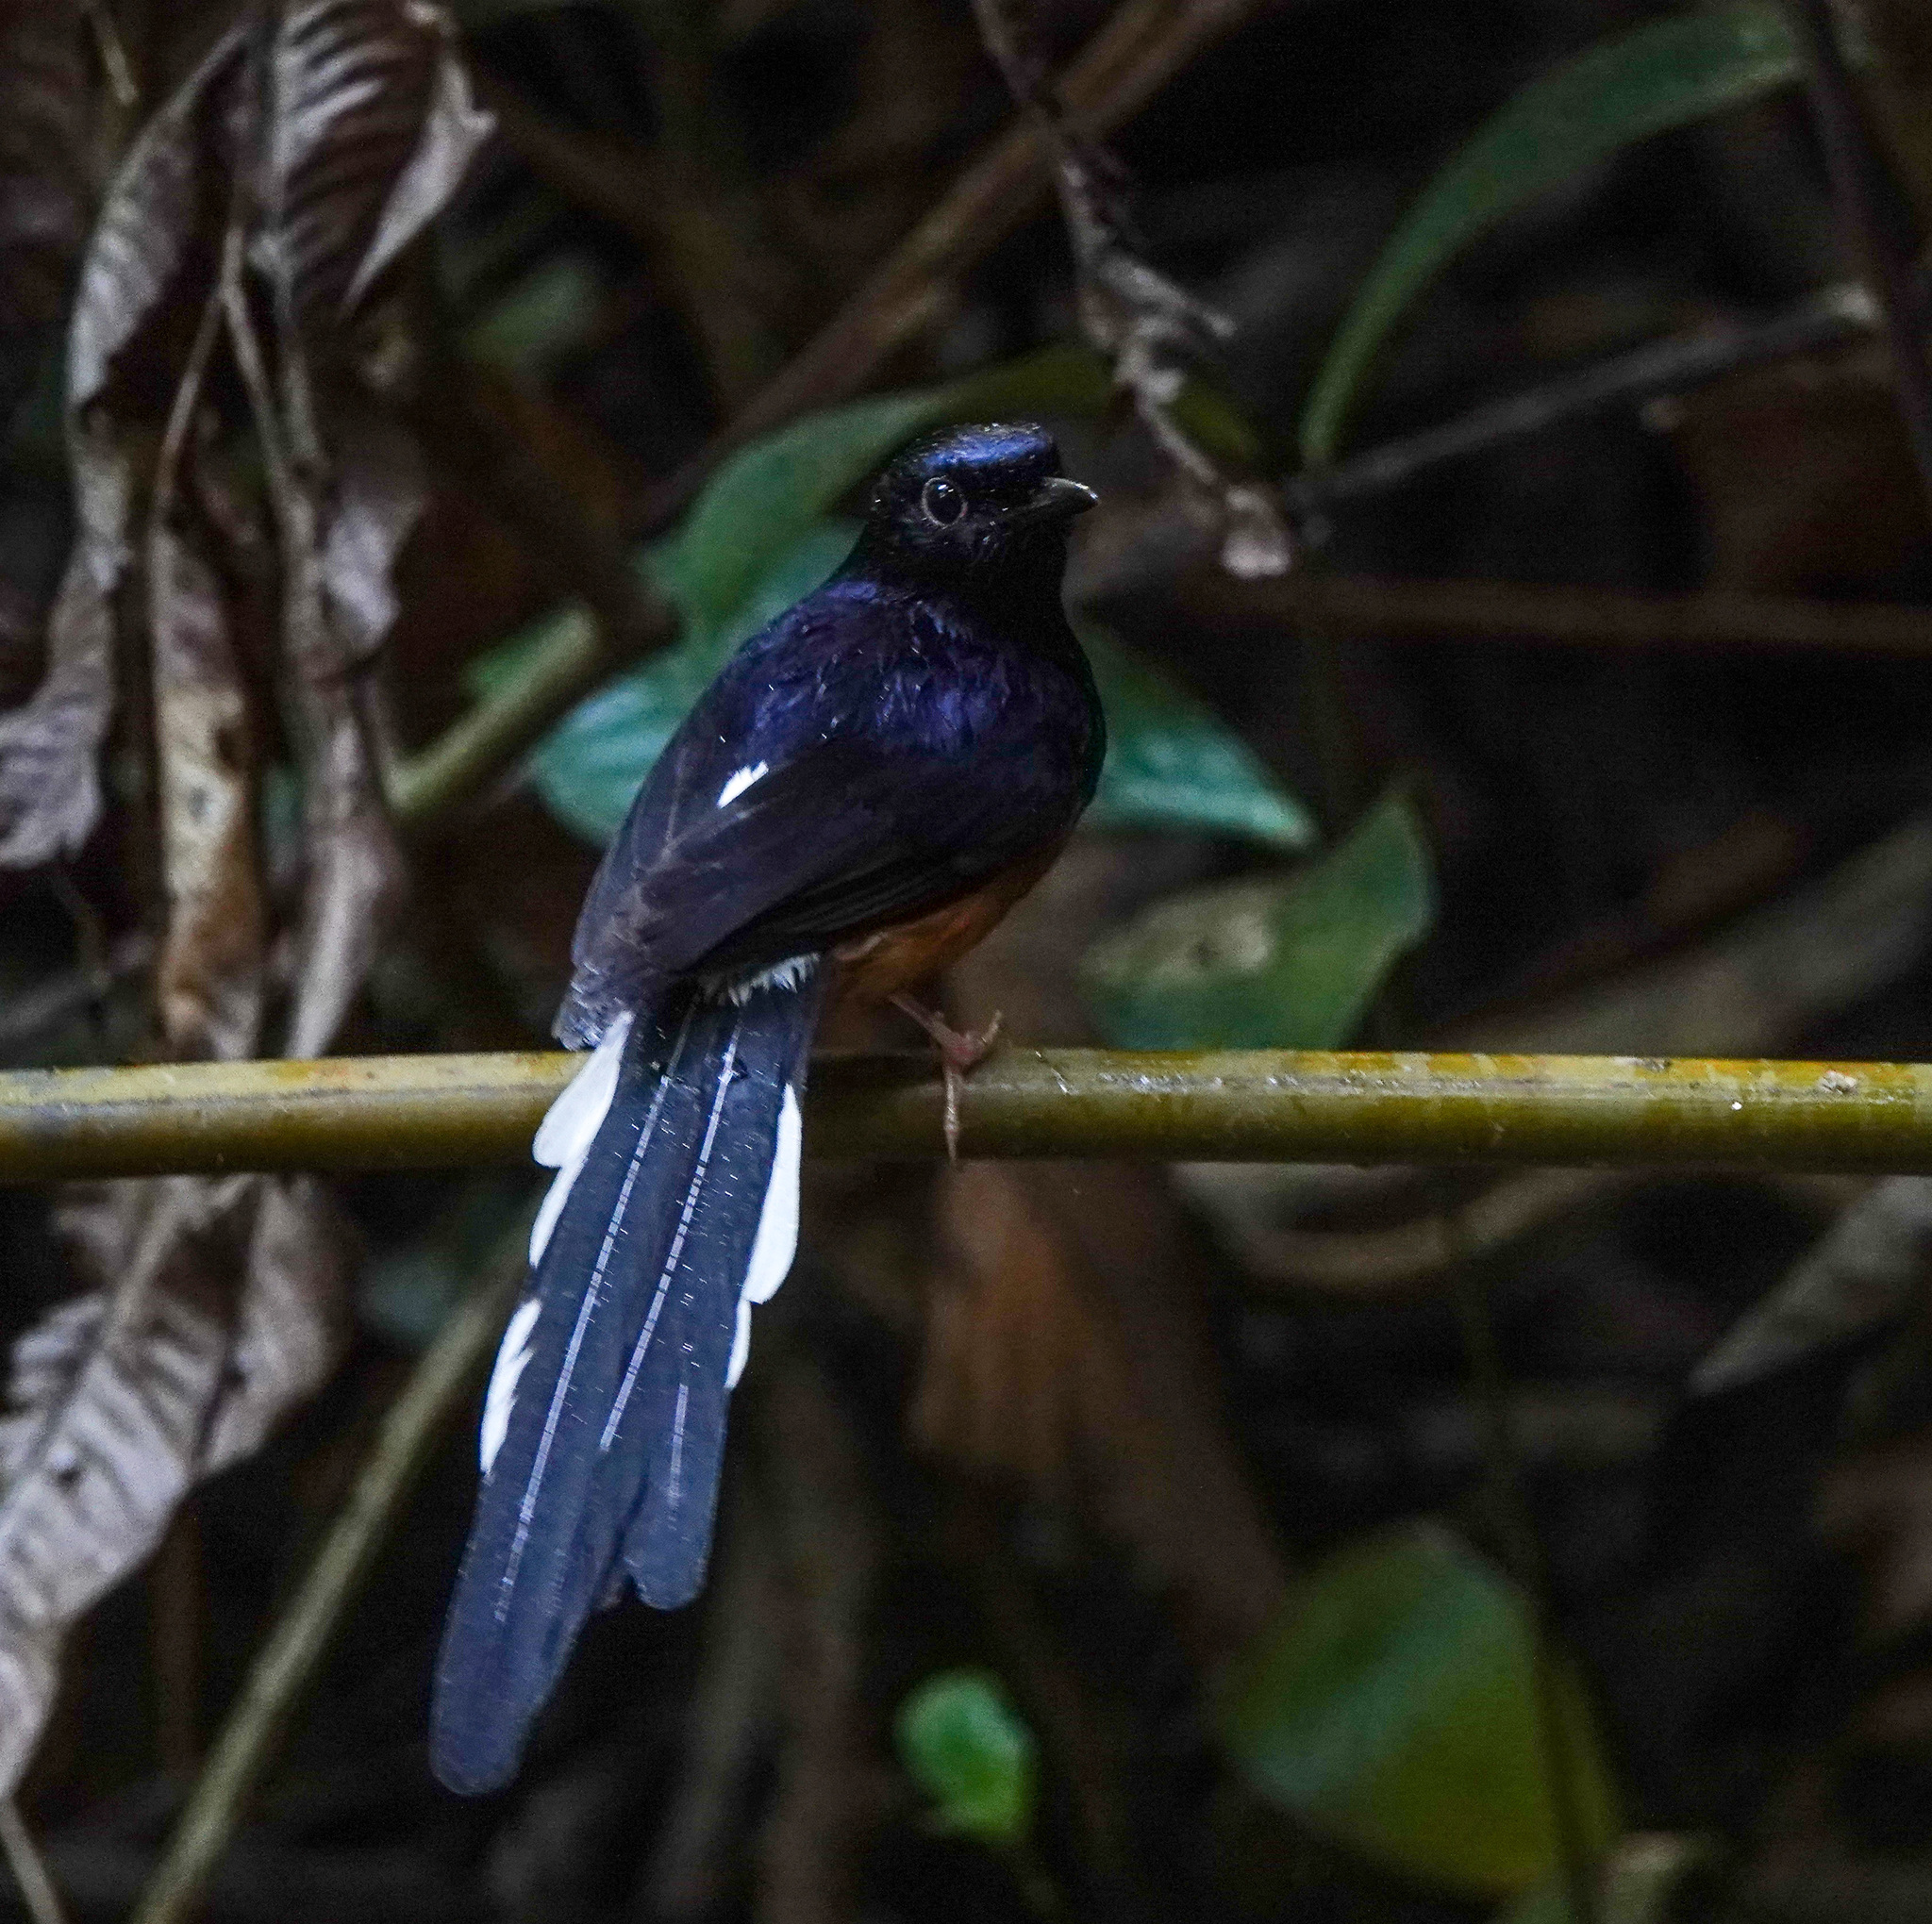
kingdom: Animalia
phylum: Chordata
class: Aves
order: Passeriformes
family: Muscicapidae
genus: Copsychus
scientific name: Copsychus malabaricus
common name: White-rumped shama
